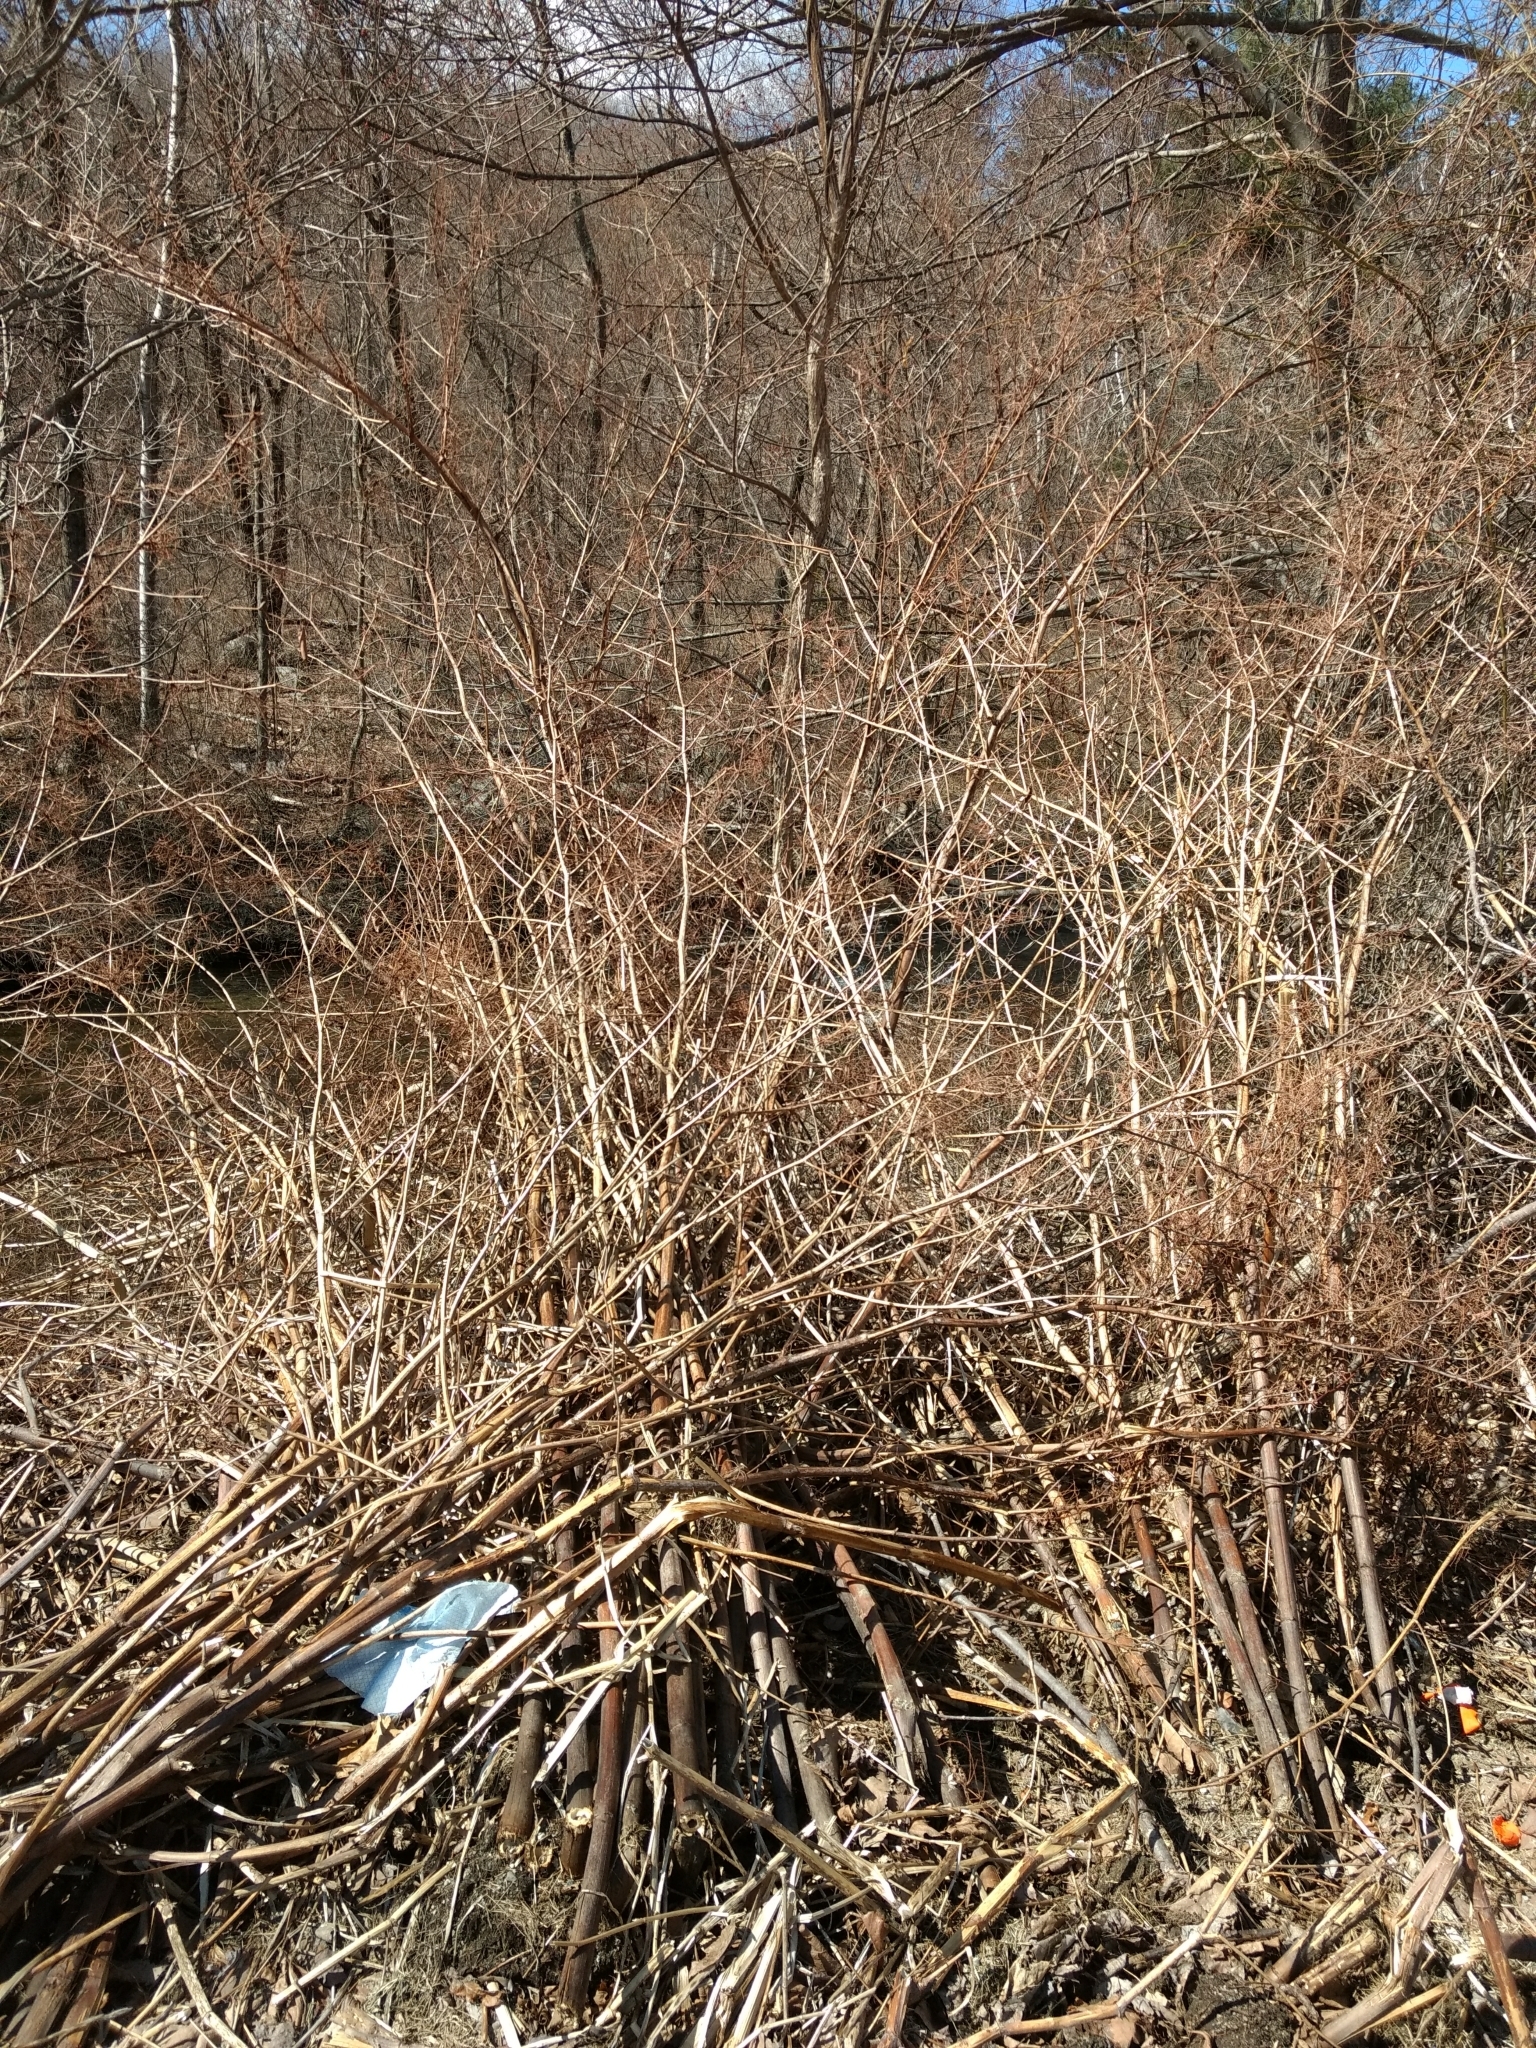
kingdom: Plantae
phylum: Tracheophyta
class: Magnoliopsida
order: Caryophyllales
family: Polygonaceae
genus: Reynoutria
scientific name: Reynoutria japonica
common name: Japanese knotweed
